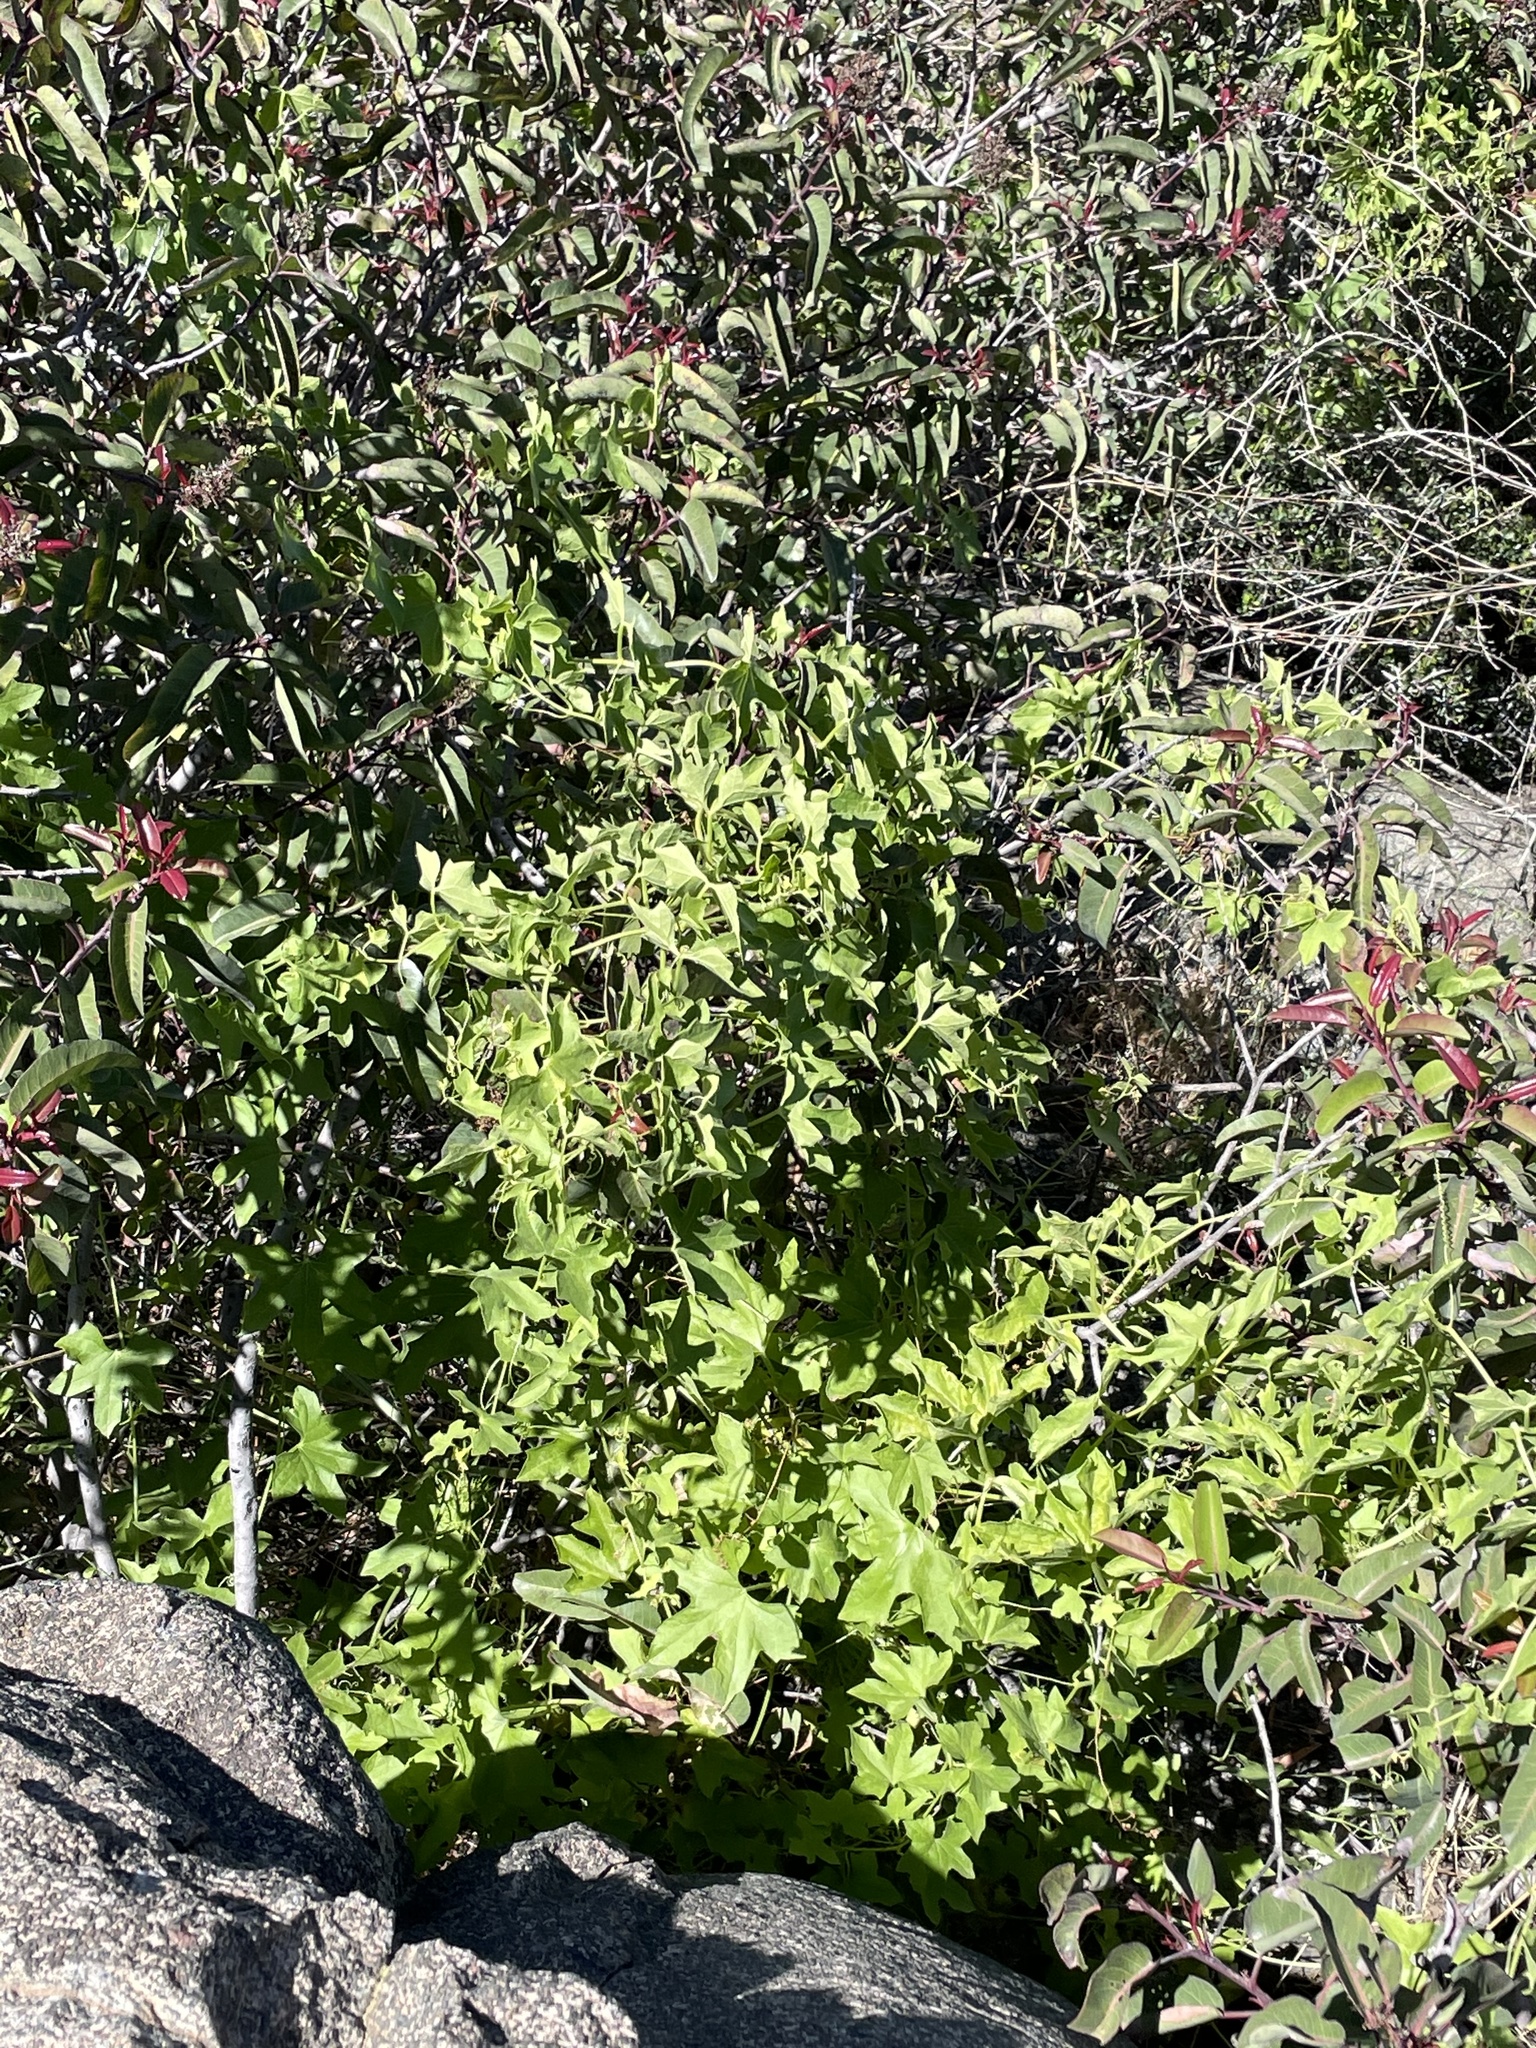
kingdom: Plantae
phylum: Tracheophyta
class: Magnoliopsida
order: Cucurbitales
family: Cucurbitaceae
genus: Marah
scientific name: Marah macrocarpa
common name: Cucamonga manroot
